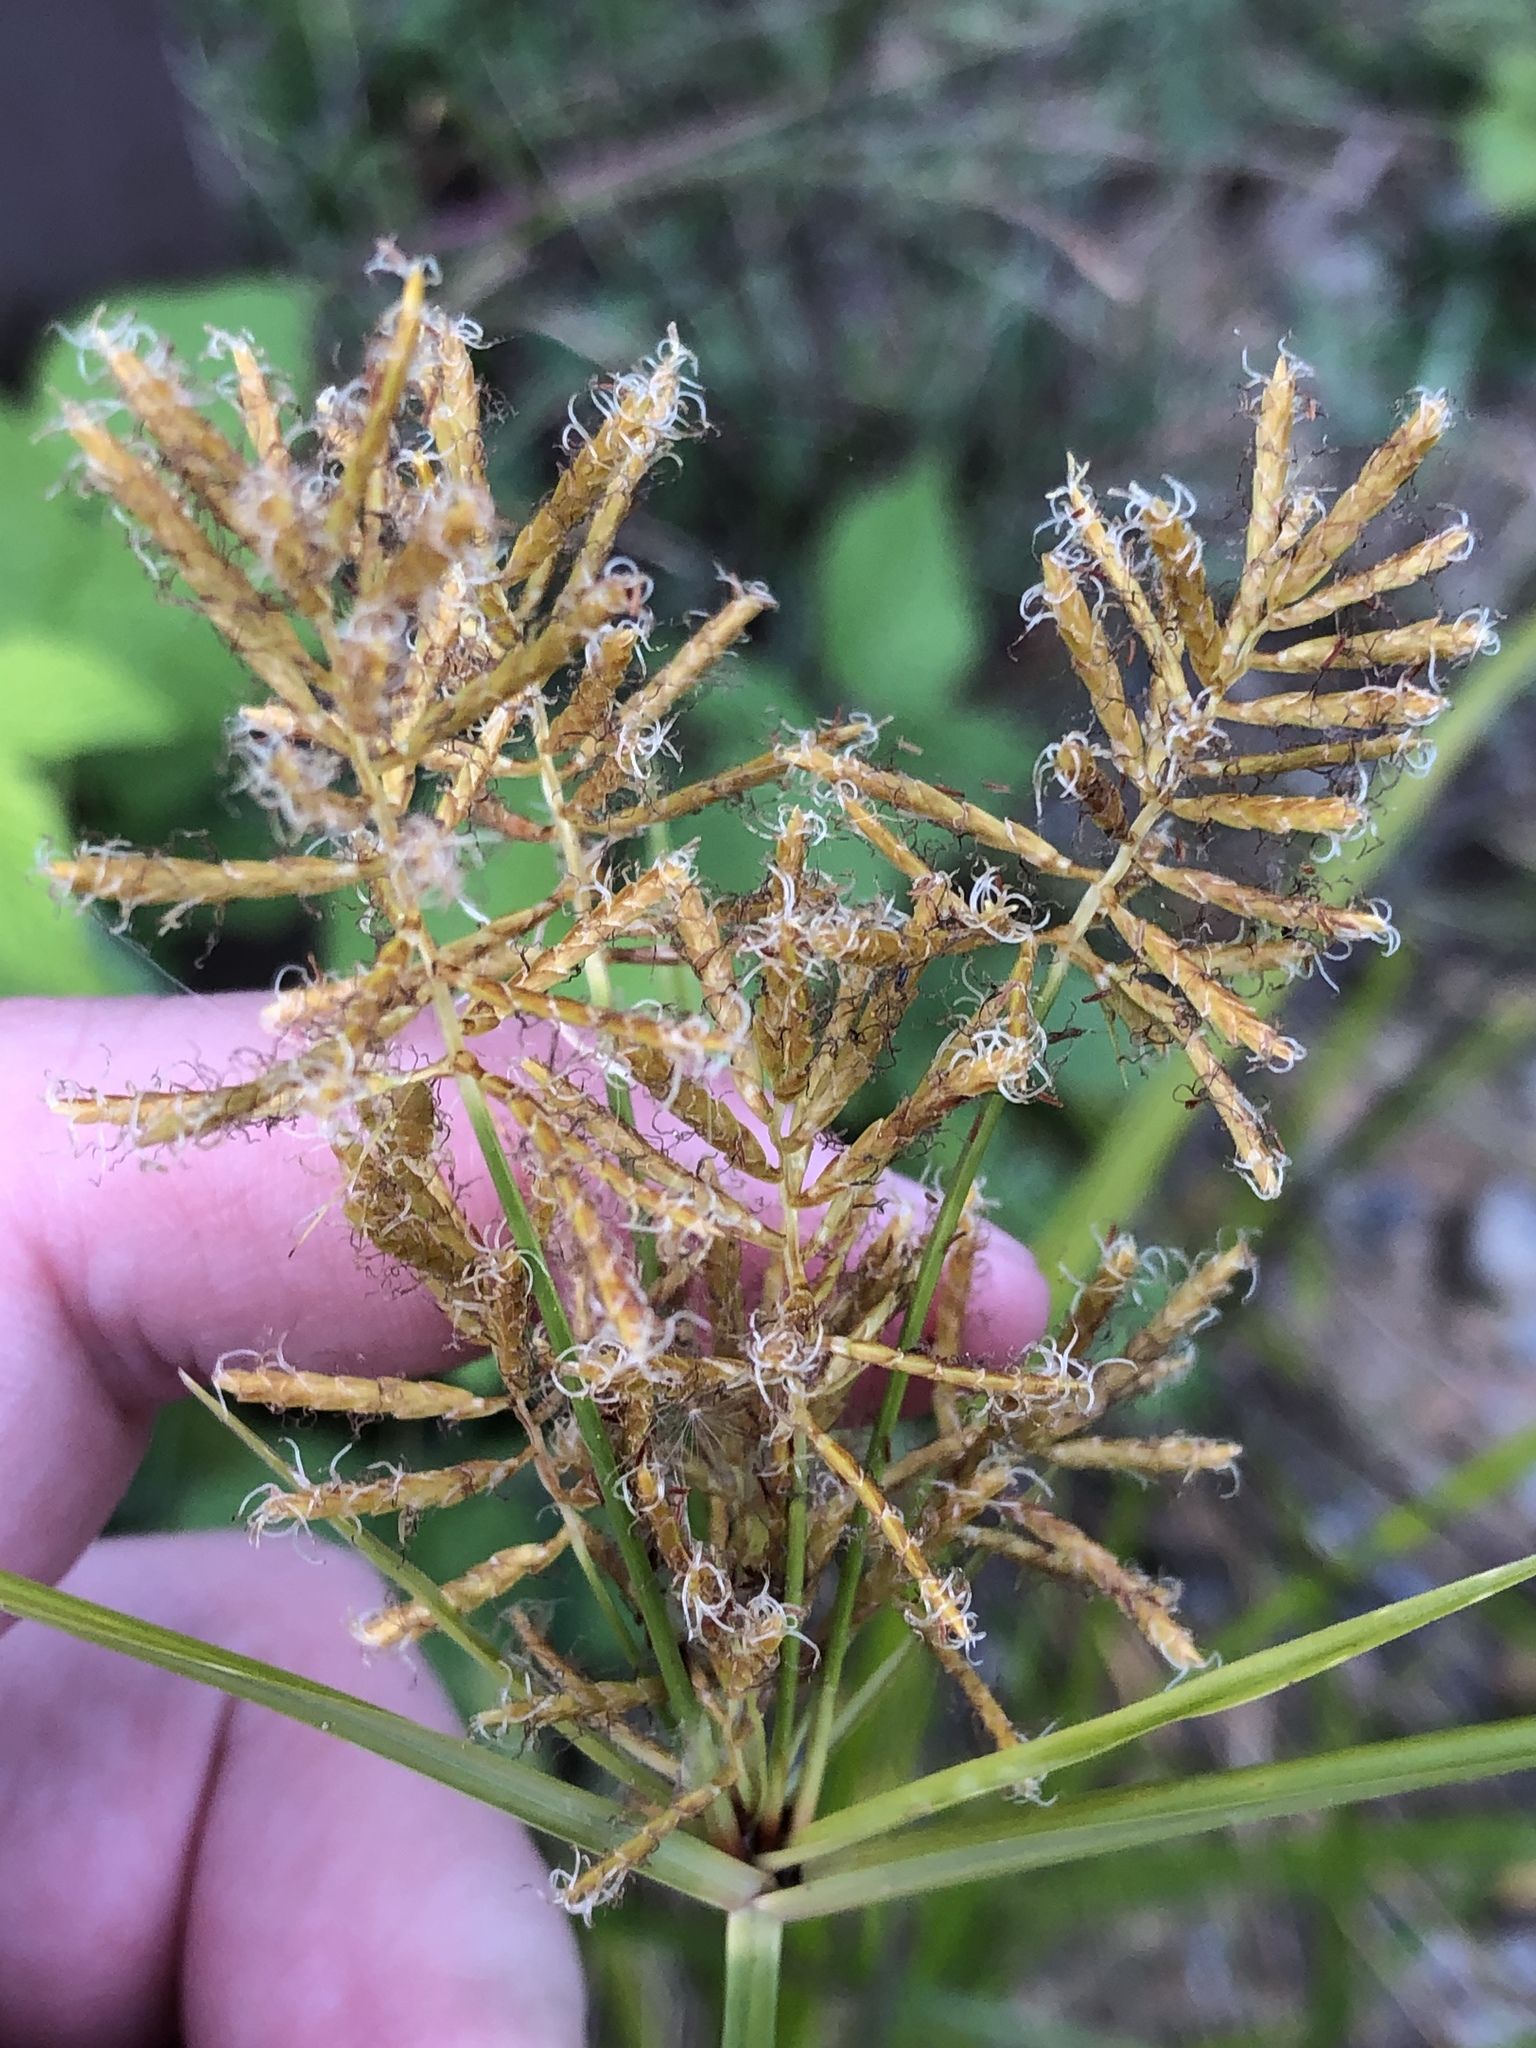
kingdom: Plantae
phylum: Tracheophyta
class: Liliopsida
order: Poales
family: Cyperaceae
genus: Cyperus
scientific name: Cyperus esculentus
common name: Yellow nutsedge
